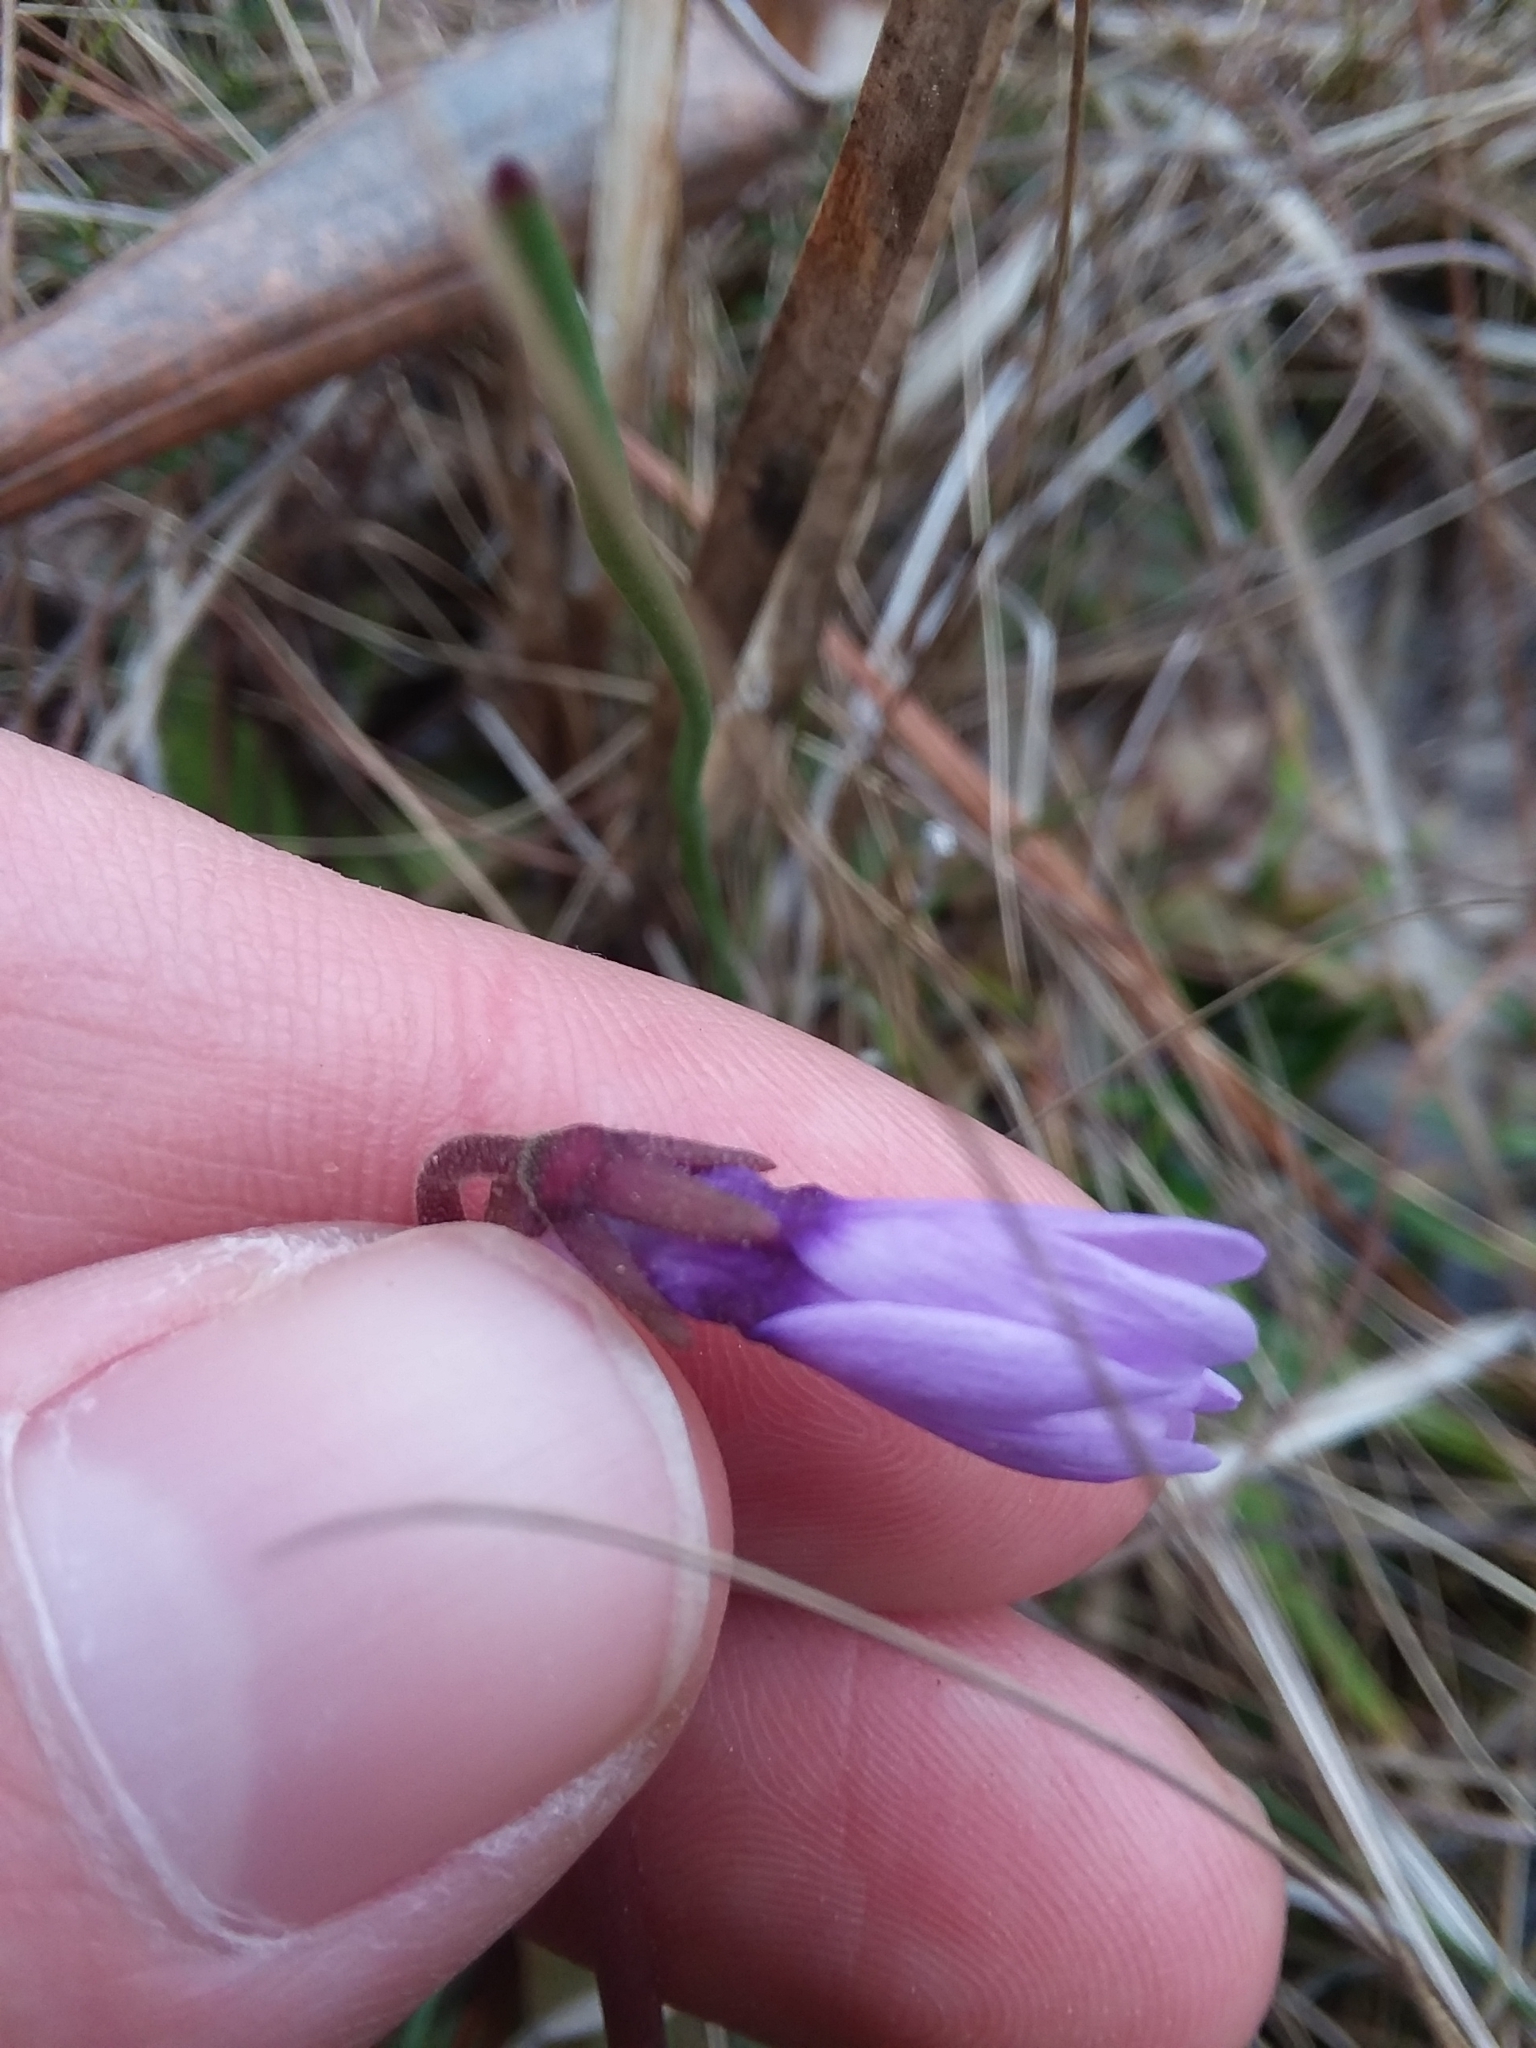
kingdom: Plantae
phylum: Tracheophyta
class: Magnoliopsida
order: Lamiales
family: Lentibulariaceae
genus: Pinguicula
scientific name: Pinguicula planifolia
